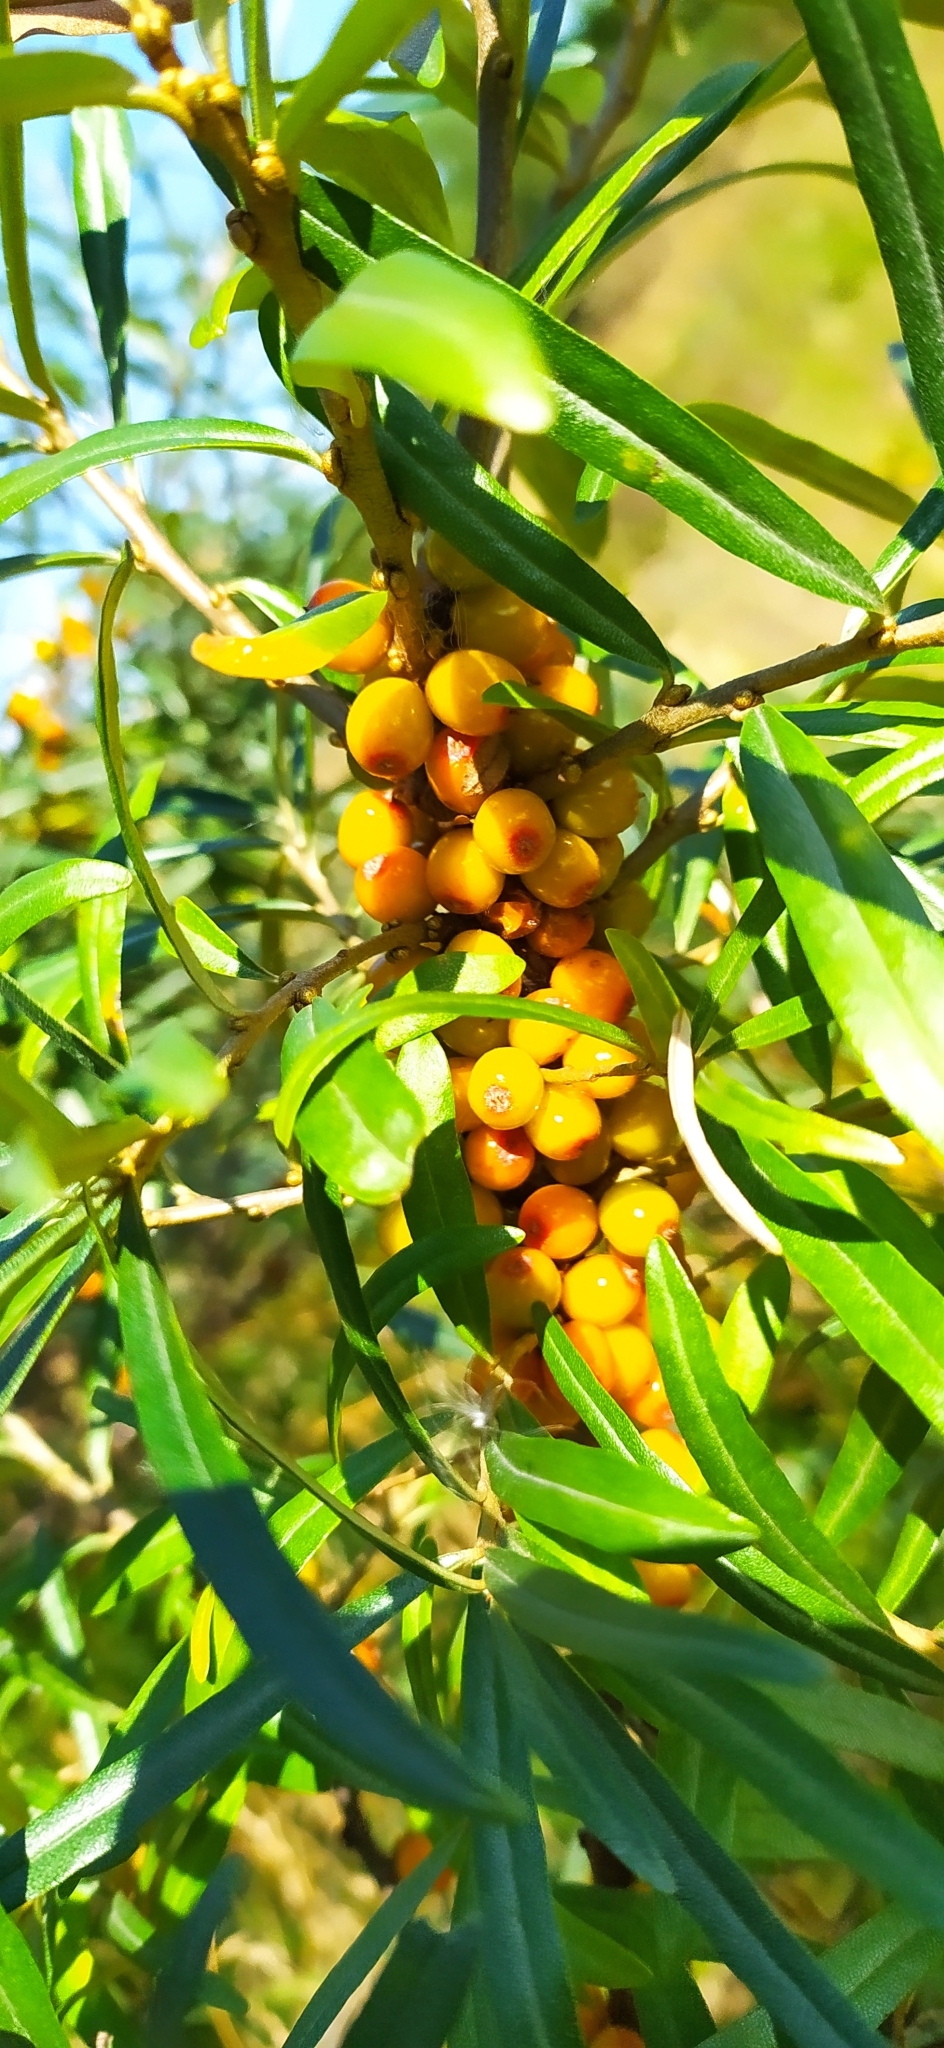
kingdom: Plantae
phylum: Tracheophyta
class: Magnoliopsida
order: Rosales
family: Elaeagnaceae
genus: Hippophae
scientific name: Hippophae rhamnoides
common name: Sea-buckthorn
